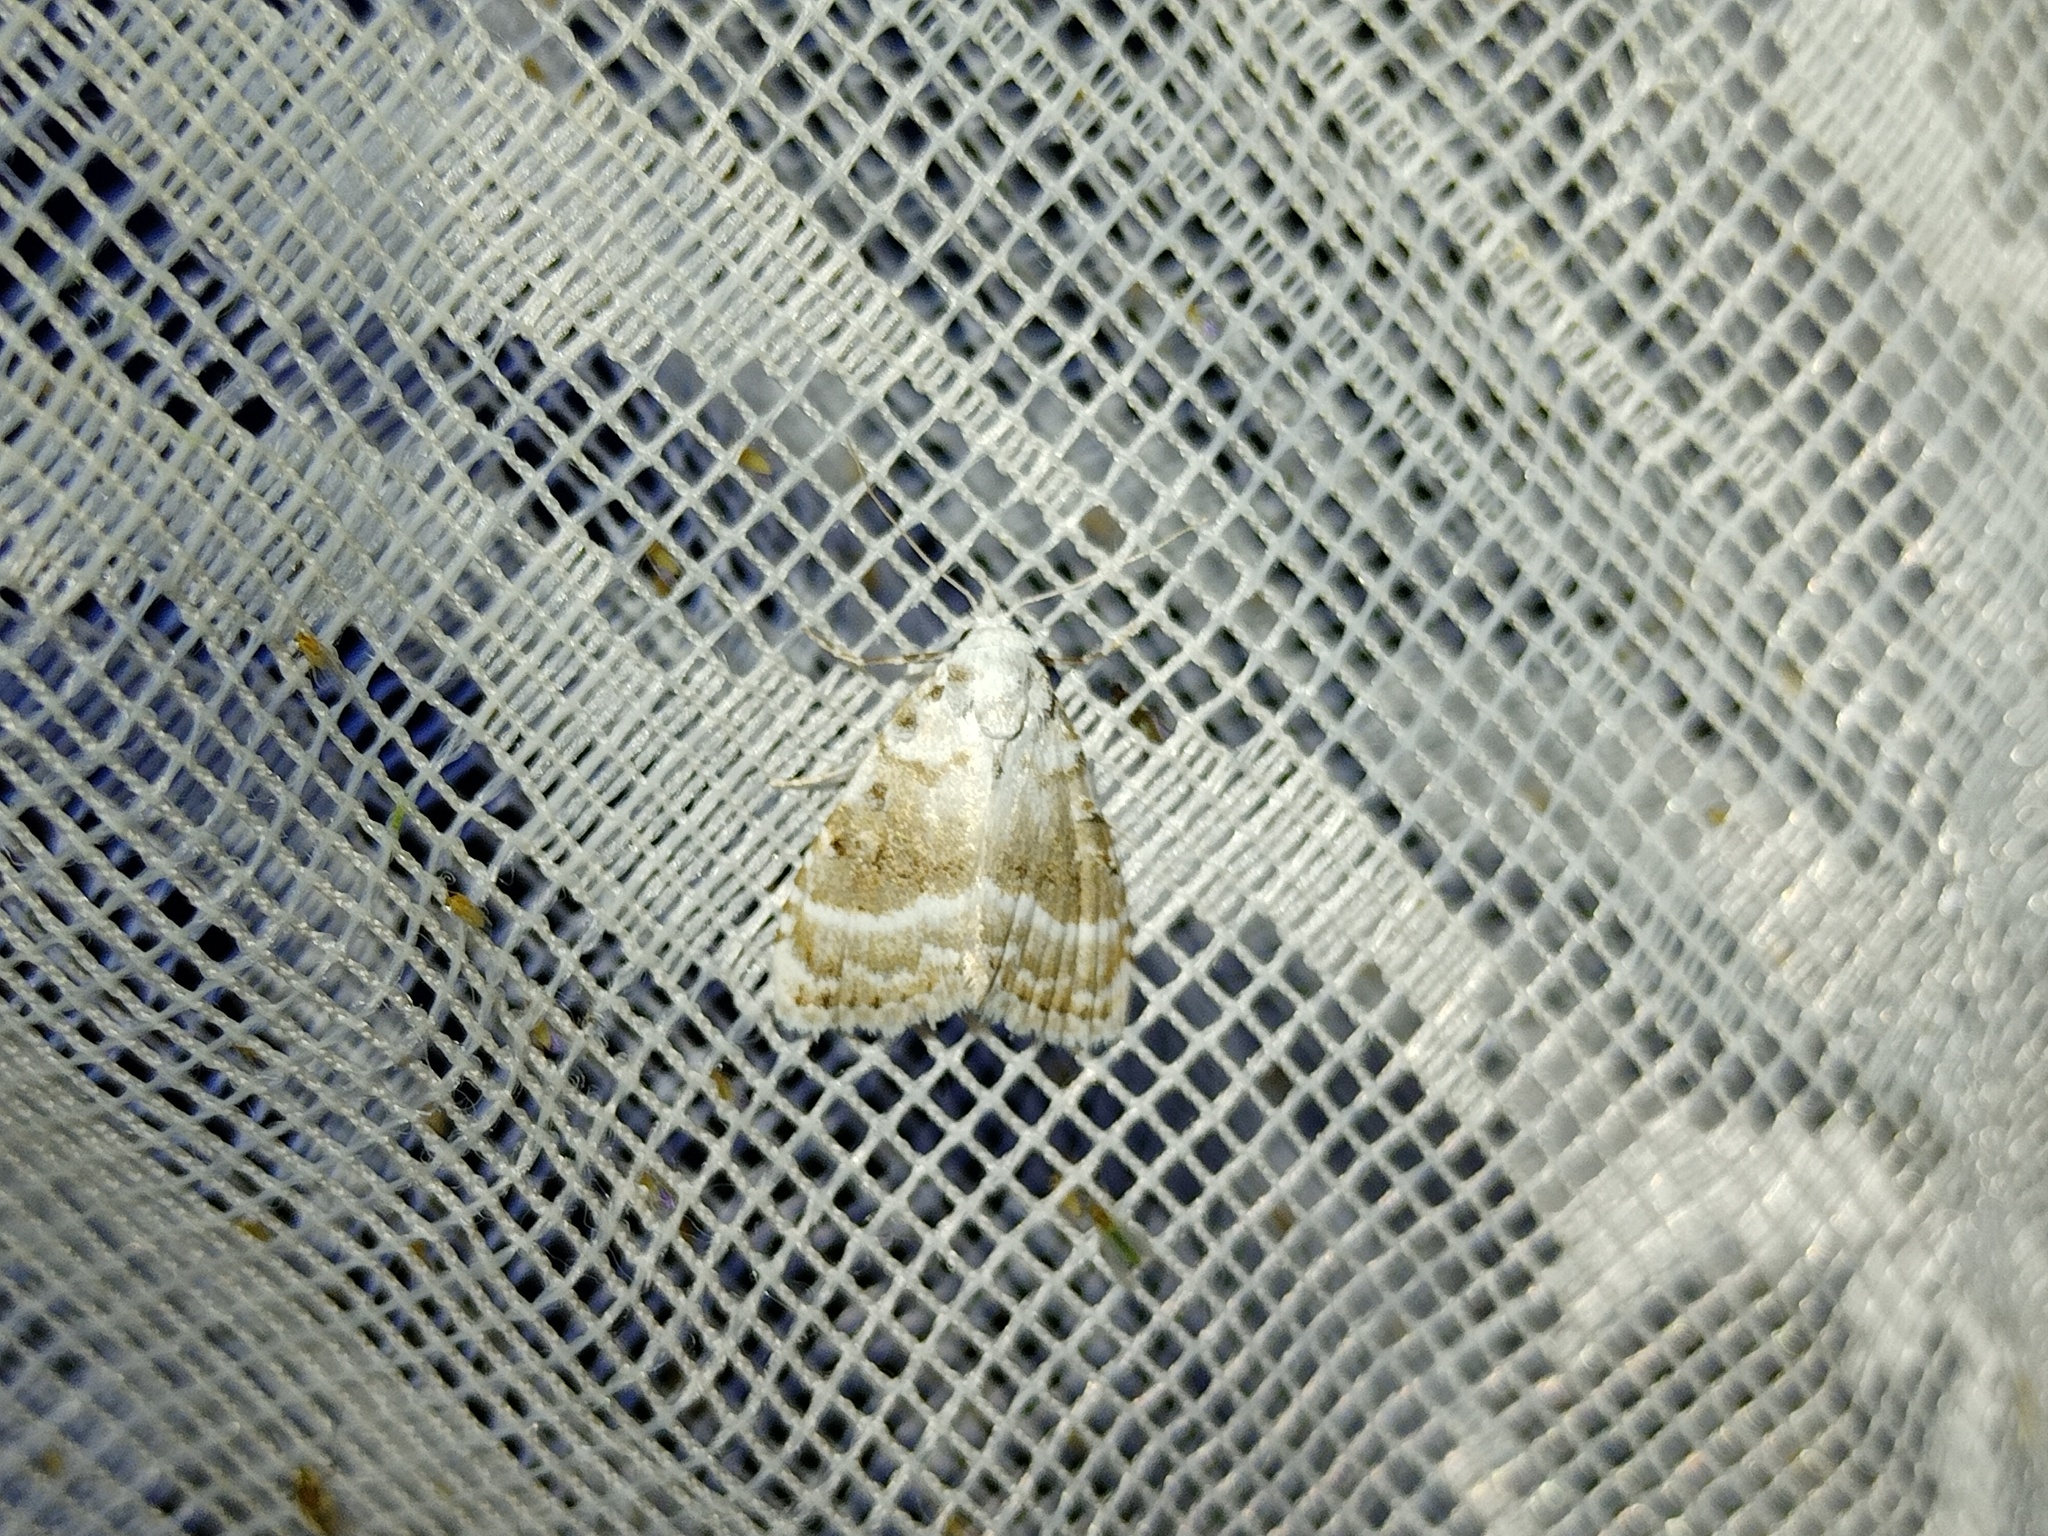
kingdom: Animalia
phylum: Arthropoda
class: Insecta
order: Lepidoptera
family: Nolidae
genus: Meganola
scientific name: Meganola albula
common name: Kent black arches
